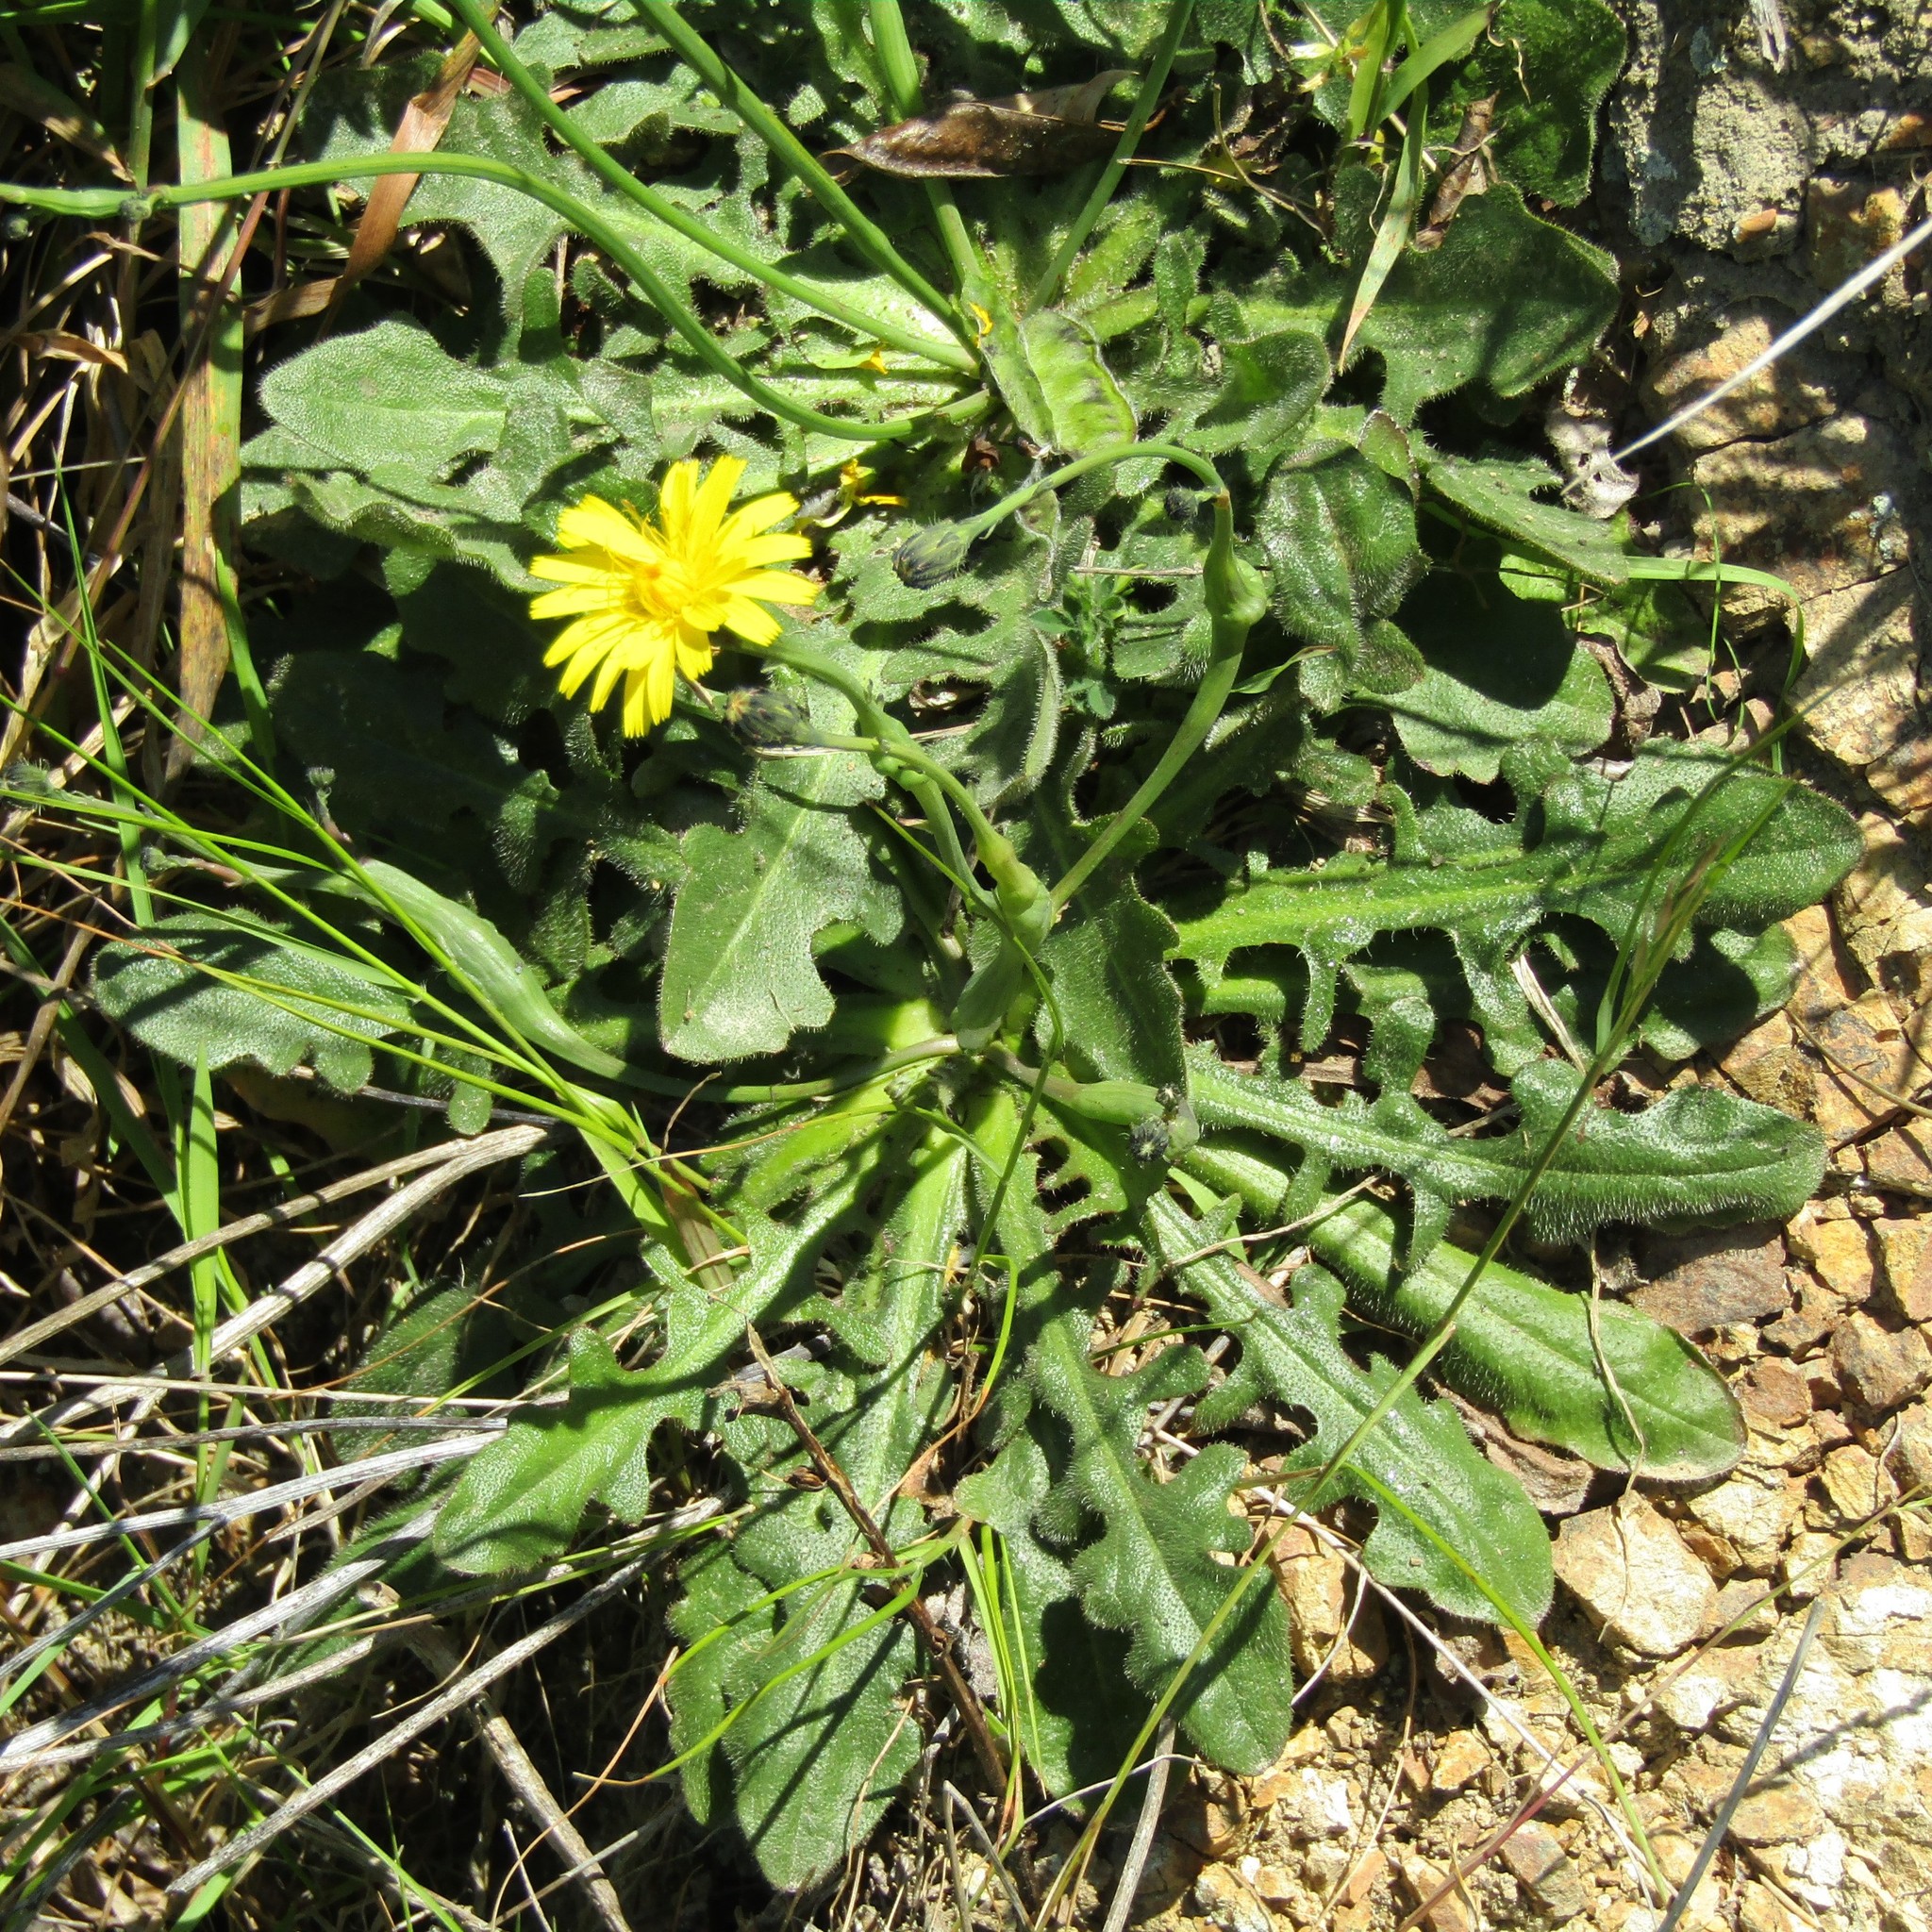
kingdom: Plantae
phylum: Tracheophyta
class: Magnoliopsida
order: Asterales
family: Asteraceae
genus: Hypochaeris
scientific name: Hypochaeris radicata
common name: Flatweed
